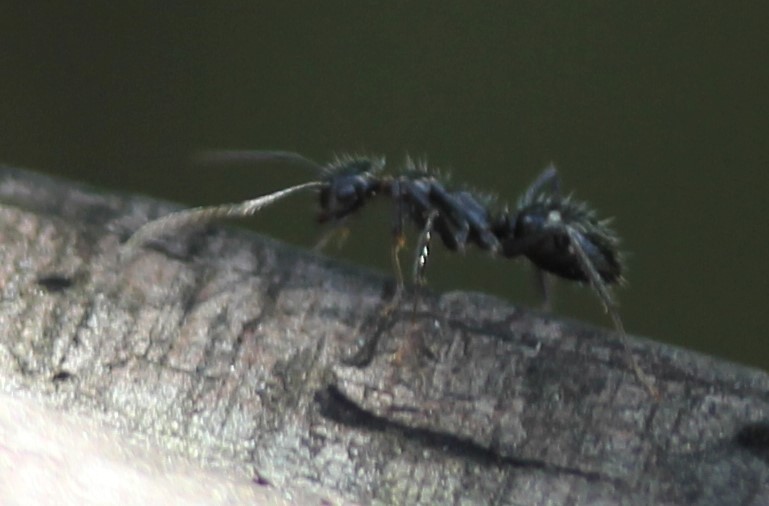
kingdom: Animalia
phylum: Arthropoda
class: Insecta
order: Hymenoptera
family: Formicidae
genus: Camponotus
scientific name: Camponotus sexguttatus
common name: Neotropical carpenter ant
